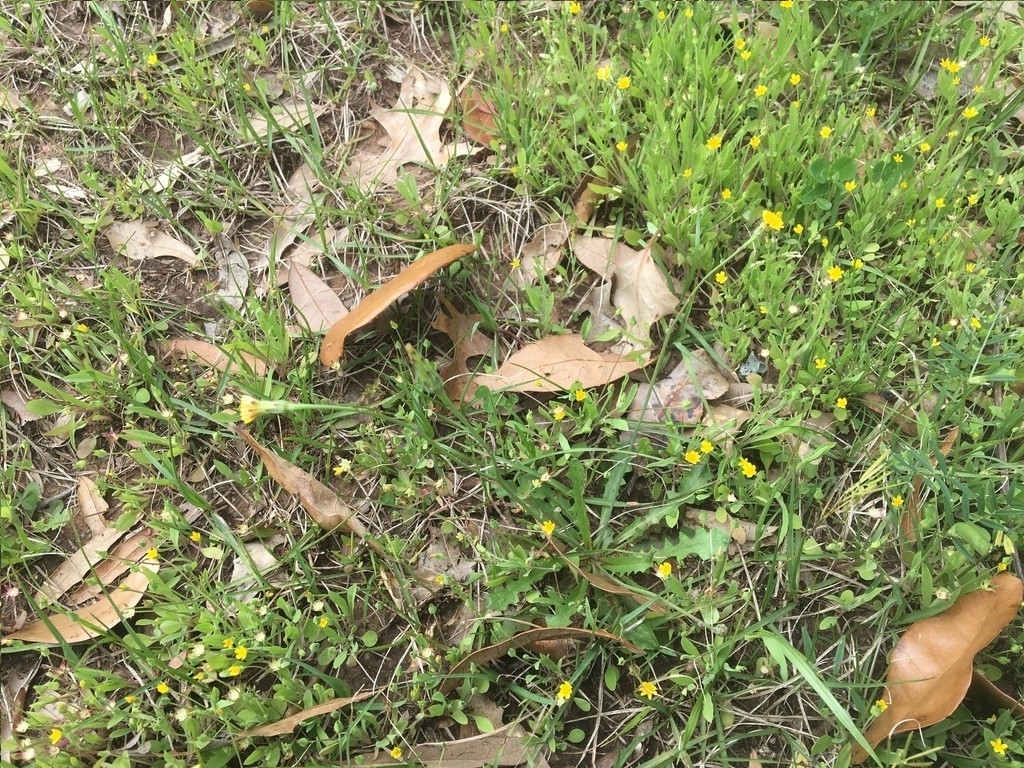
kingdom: Plantae
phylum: Tracheophyta
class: Magnoliopsida
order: Asterales
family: Asteraceae
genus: Hypochaeris
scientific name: Hypochaeris glabra
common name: Smooth catsear
